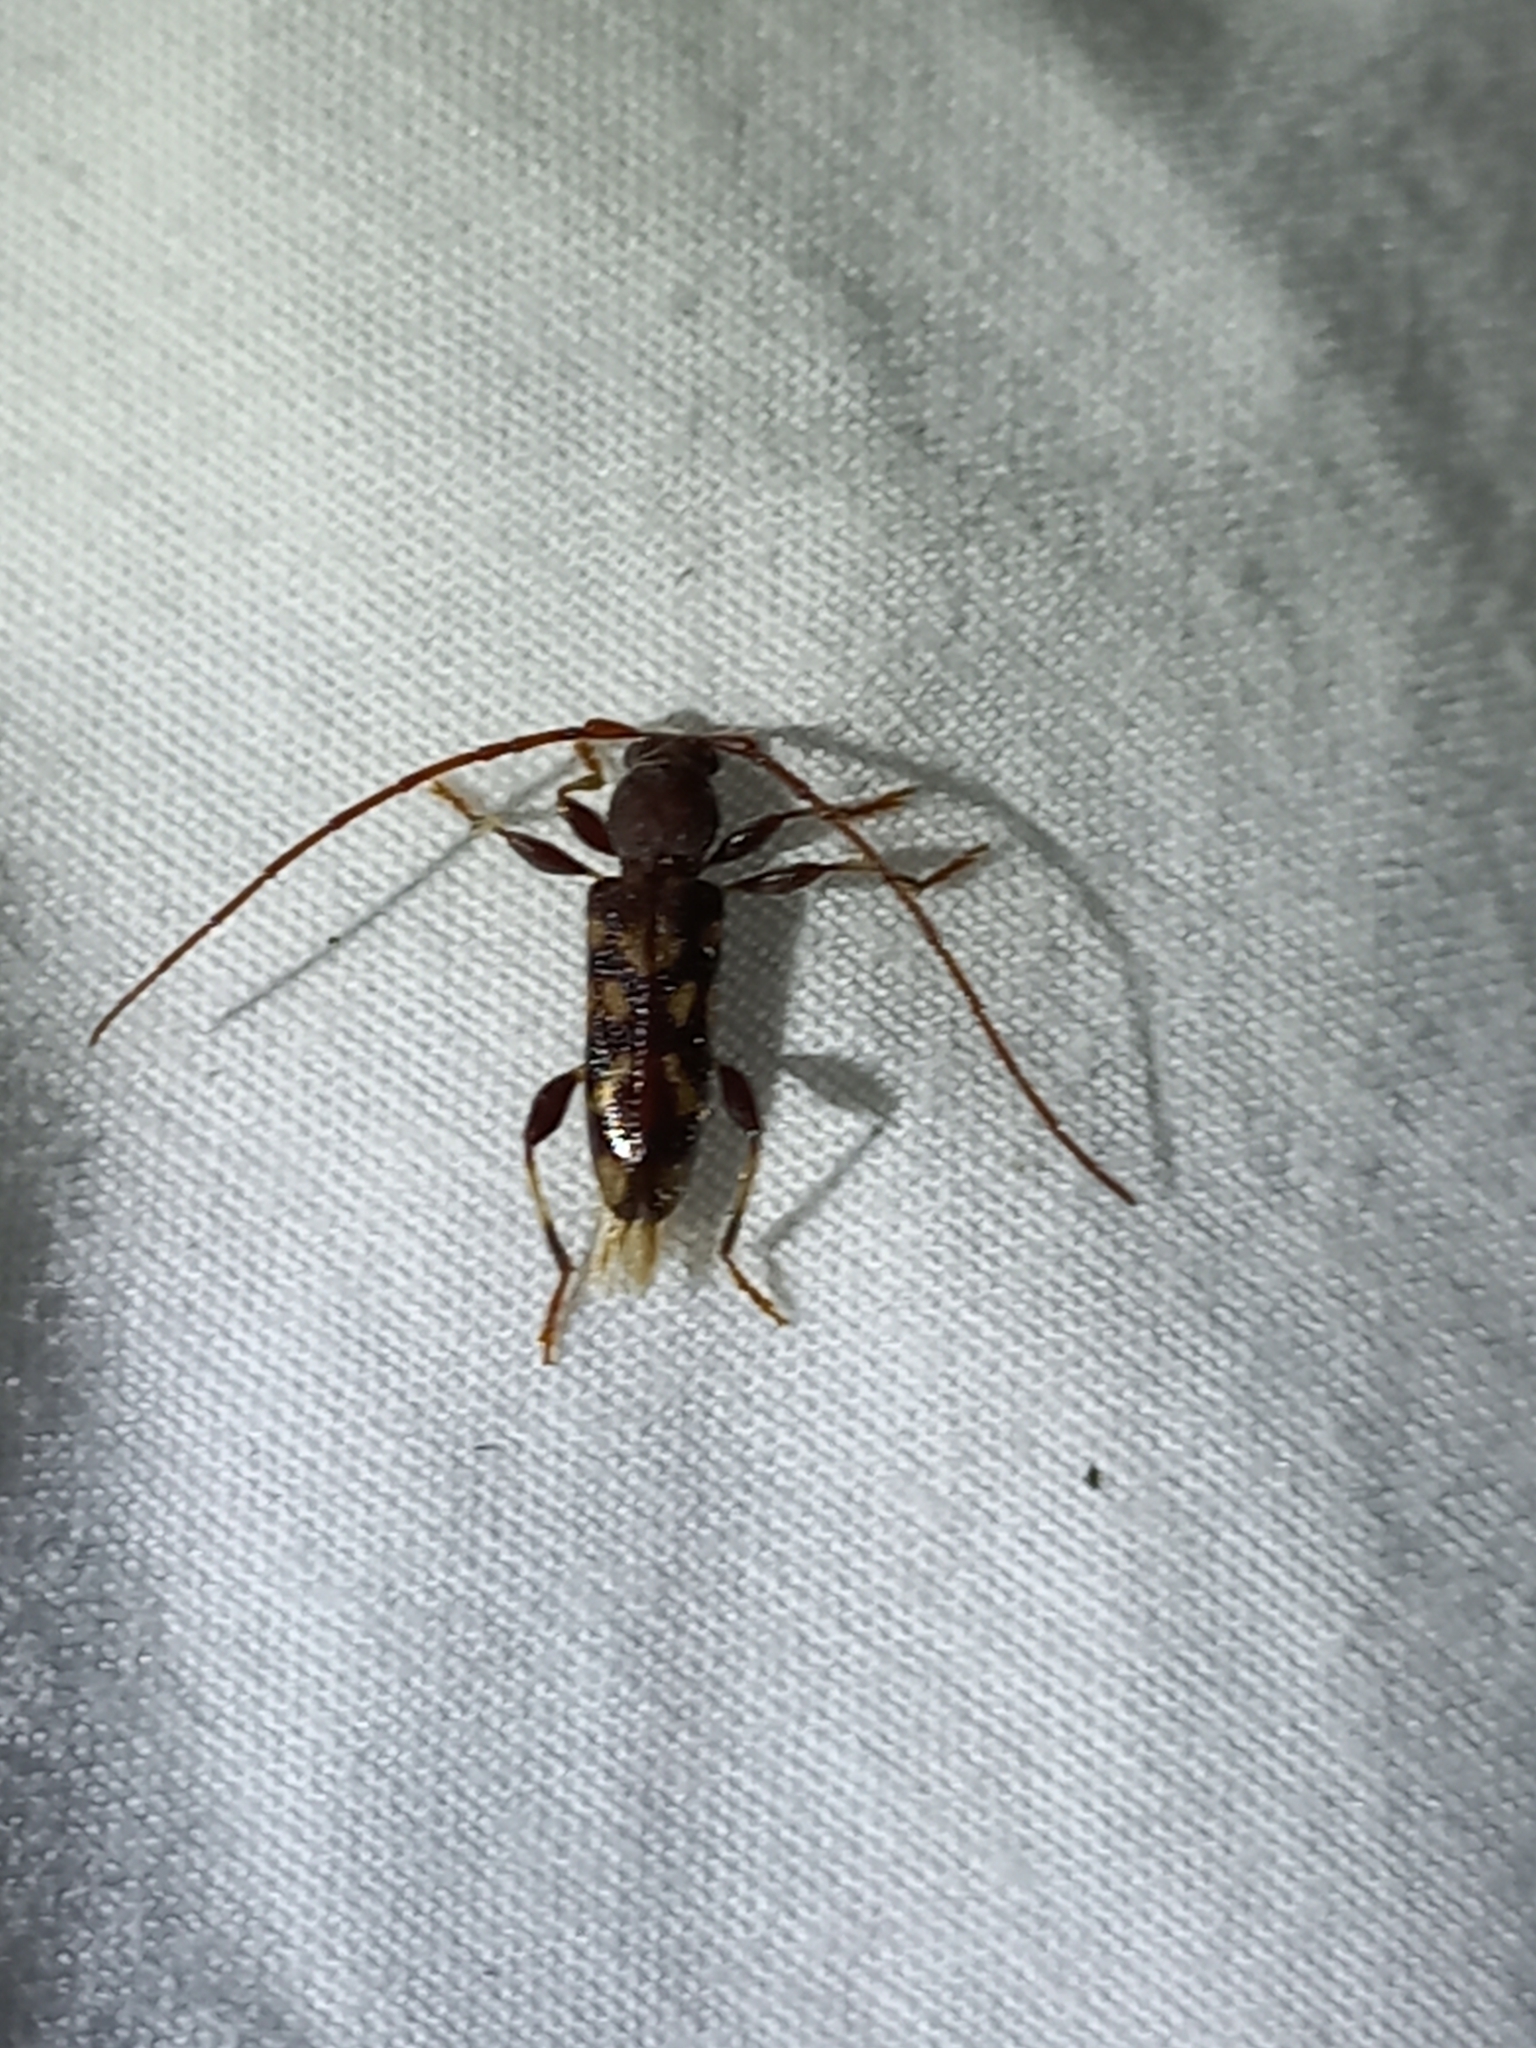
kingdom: Animalia
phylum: Arthropoda
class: Insecta
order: Coleoptera
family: Cerambycidae
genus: Bethelium
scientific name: Bethelium signiferum
